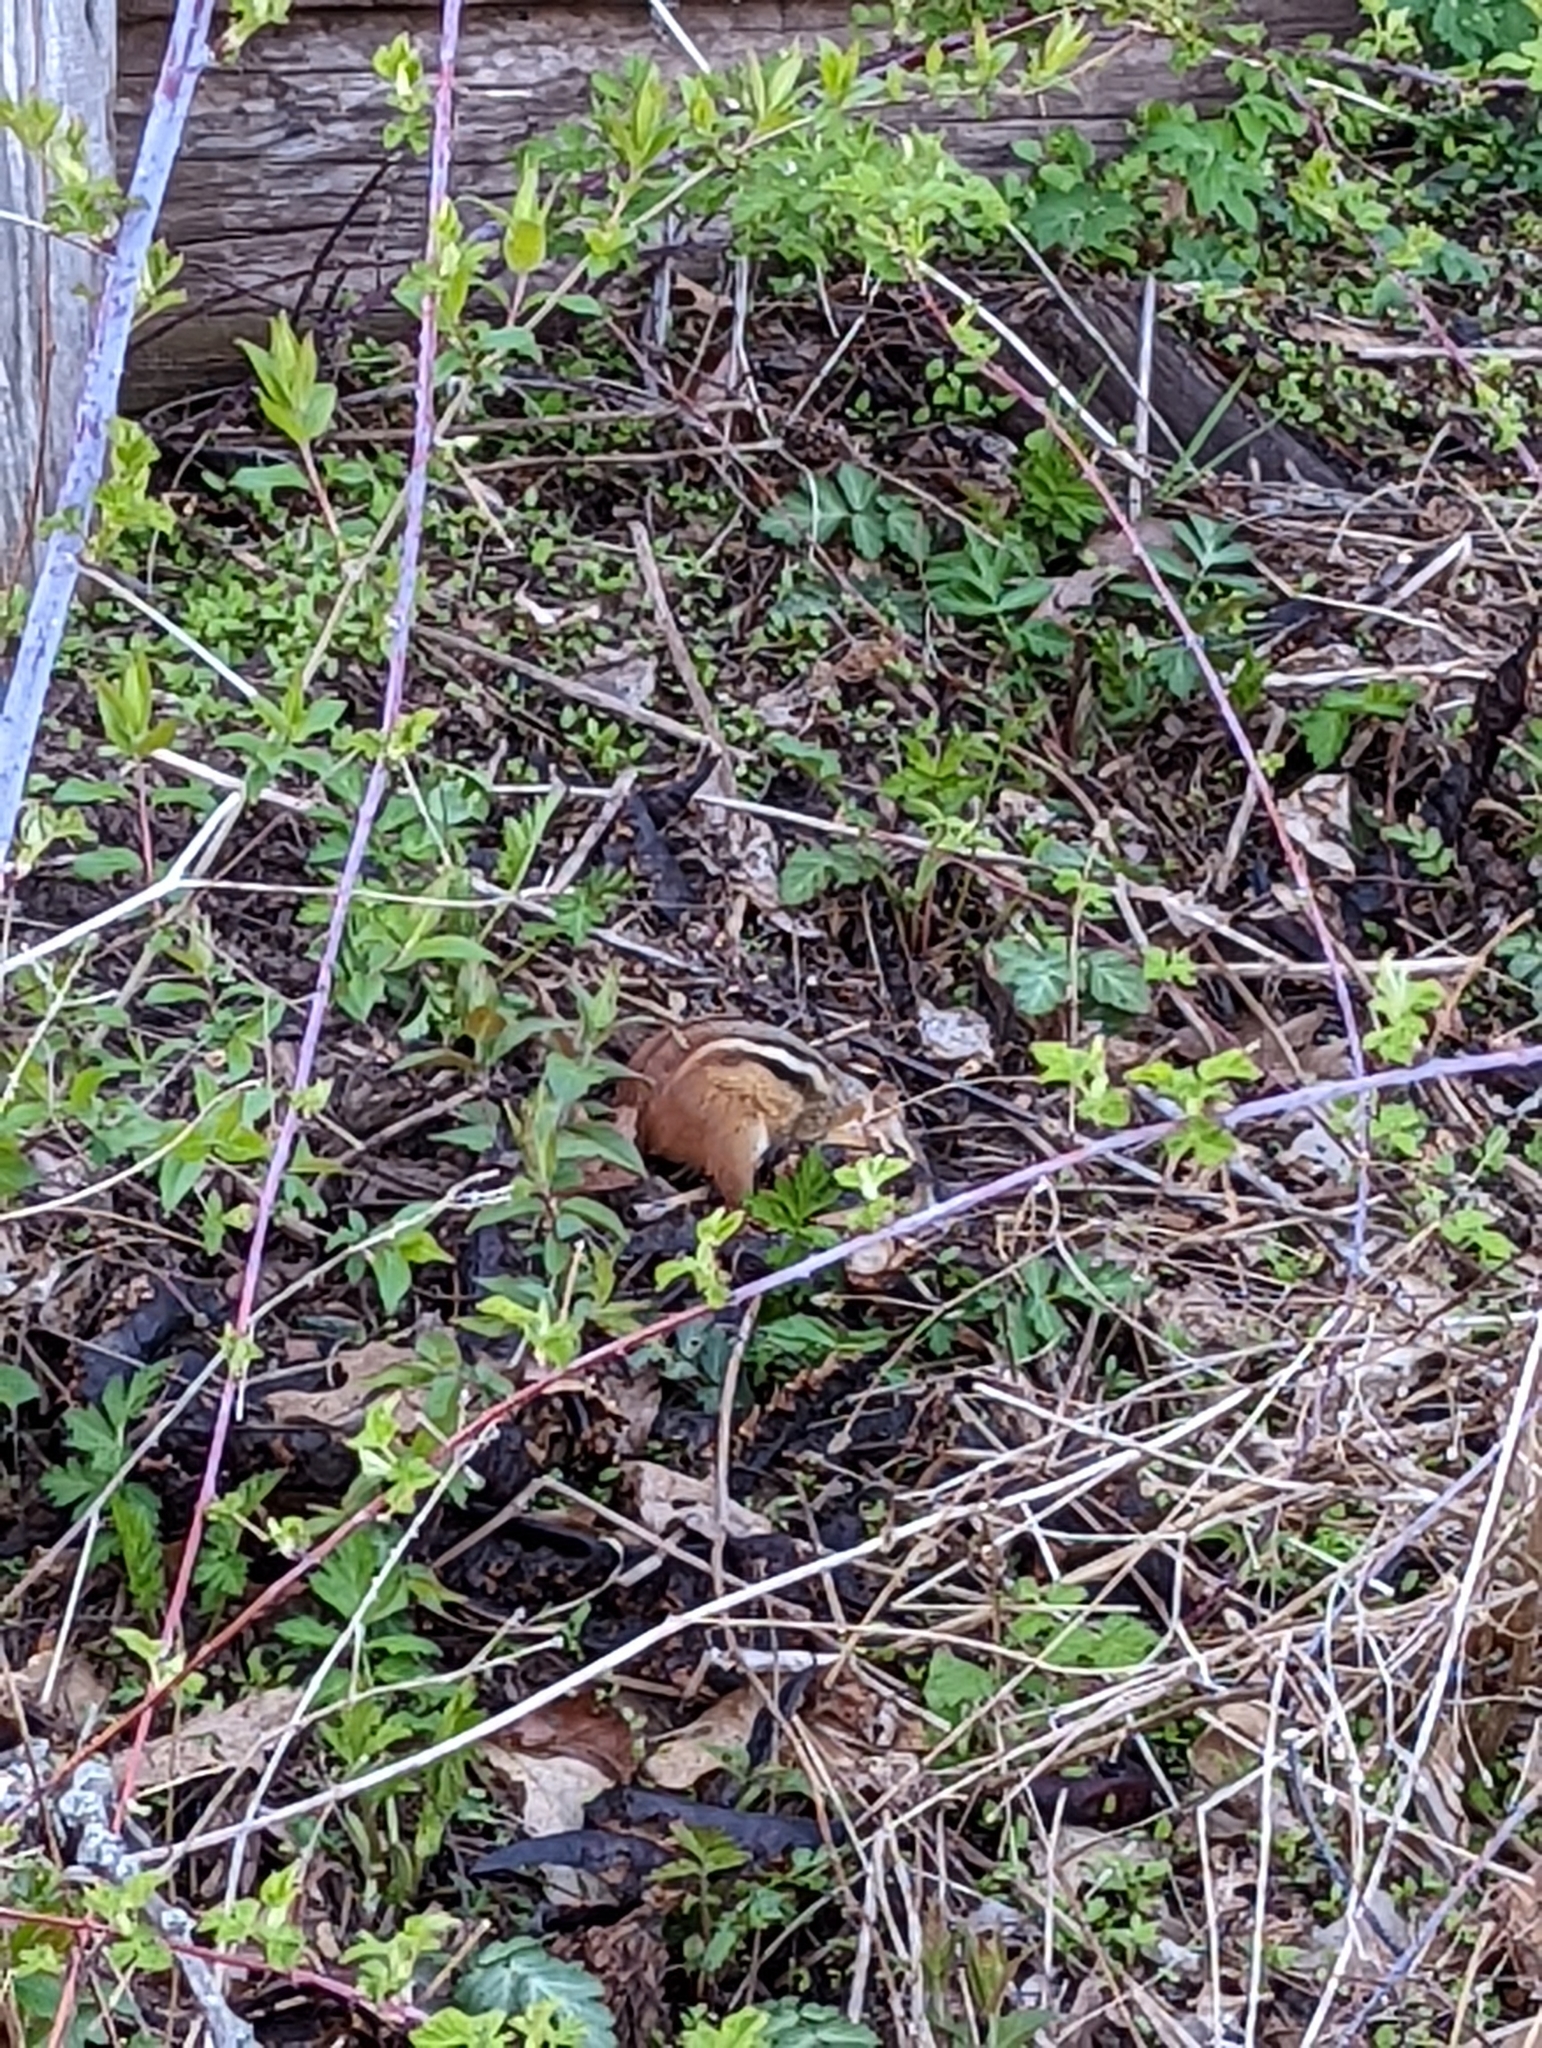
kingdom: Animalia
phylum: Chordata
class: Mammalia
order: Rodentia
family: Sciuridae
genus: Tamias
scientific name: Tamias striatus
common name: Eastern chipmunk
